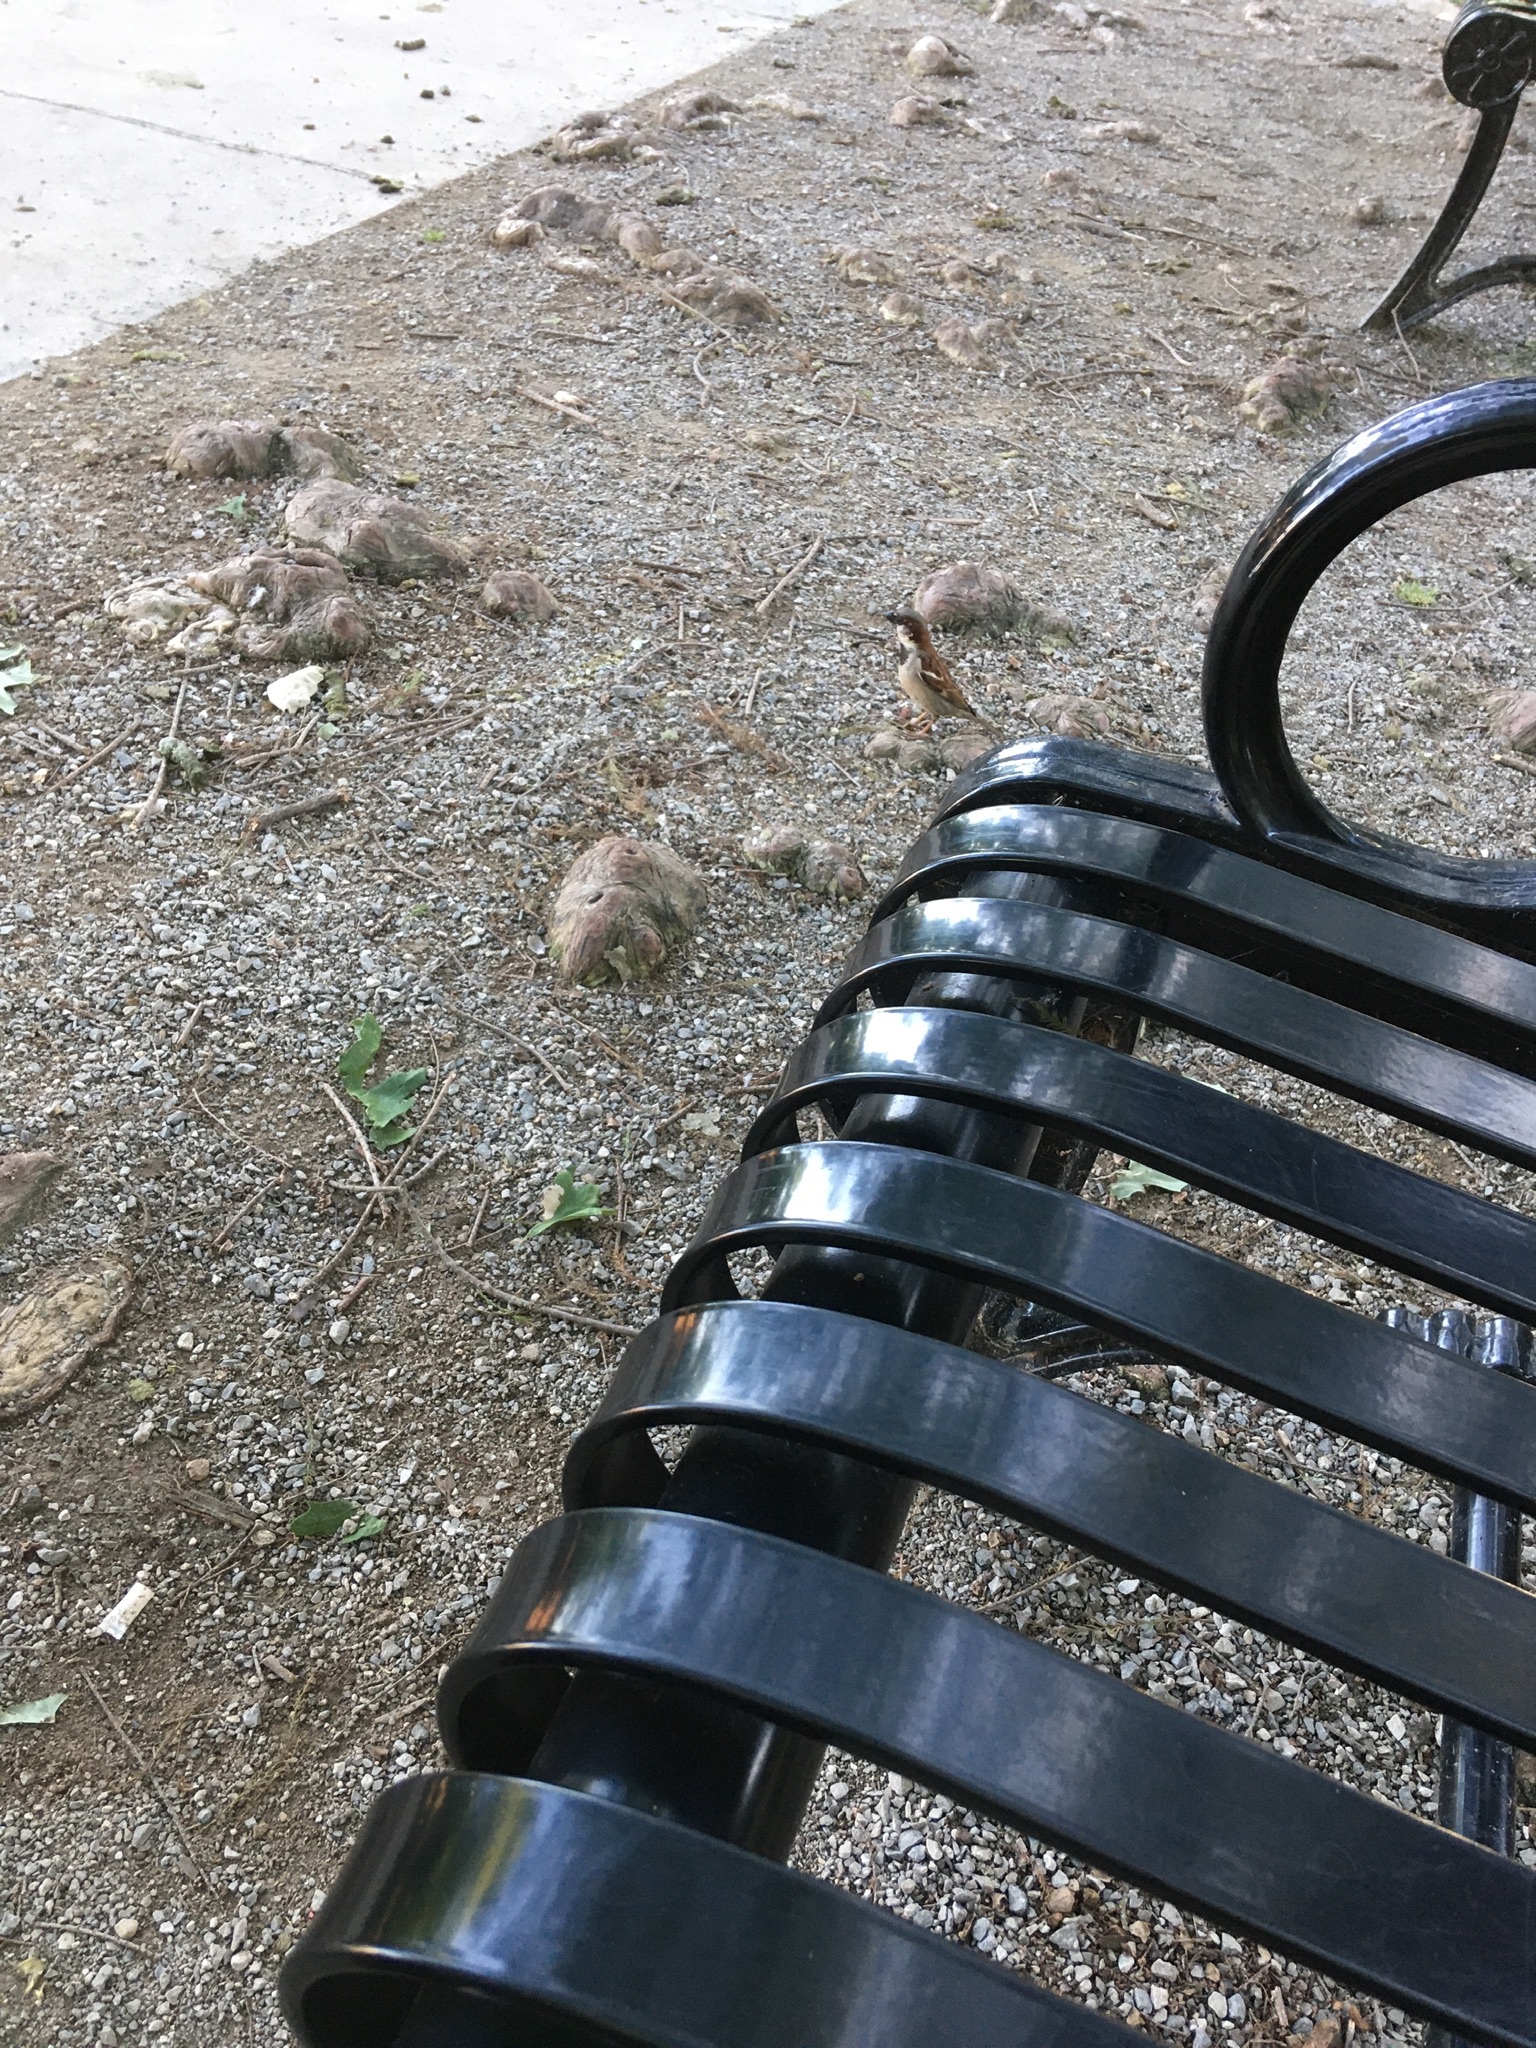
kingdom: Animalia
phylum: Chordata
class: Aves
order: Passeriformes
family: Passeridae
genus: Passer
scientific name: Passer domesticus
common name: House sparrow
